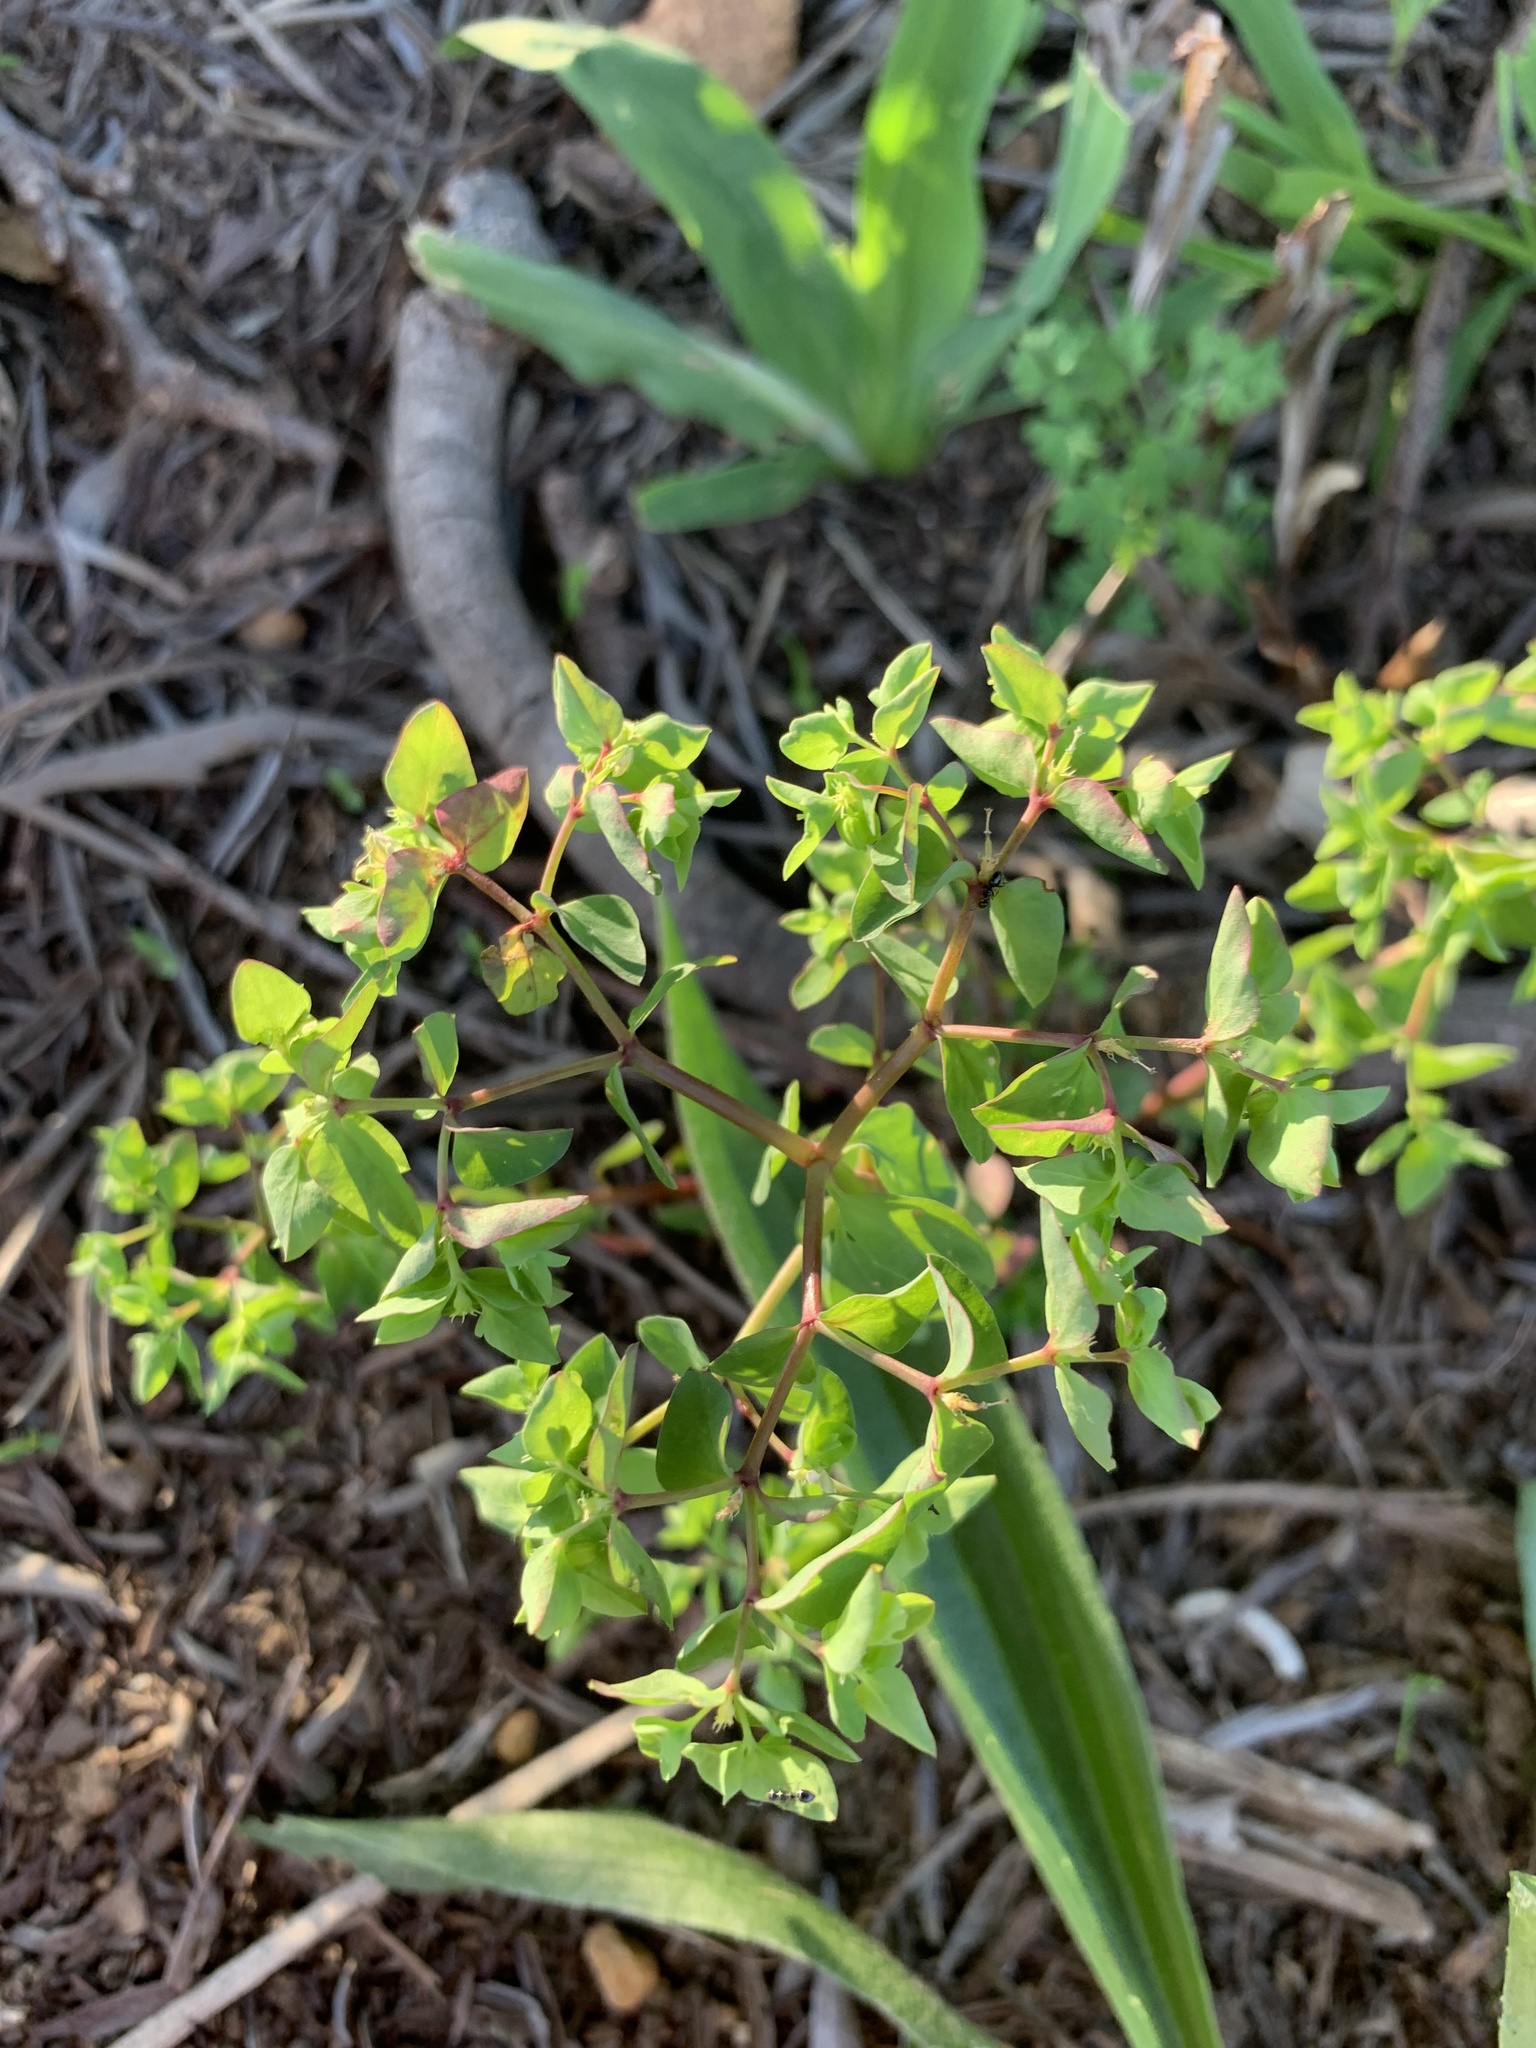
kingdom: Plantae
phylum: Tracheophyta
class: Magnoliopsida
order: Malpighiales
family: Euphorbiaceae
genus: Euphorbia
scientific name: Euphorbia peplus
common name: Petty spurge
